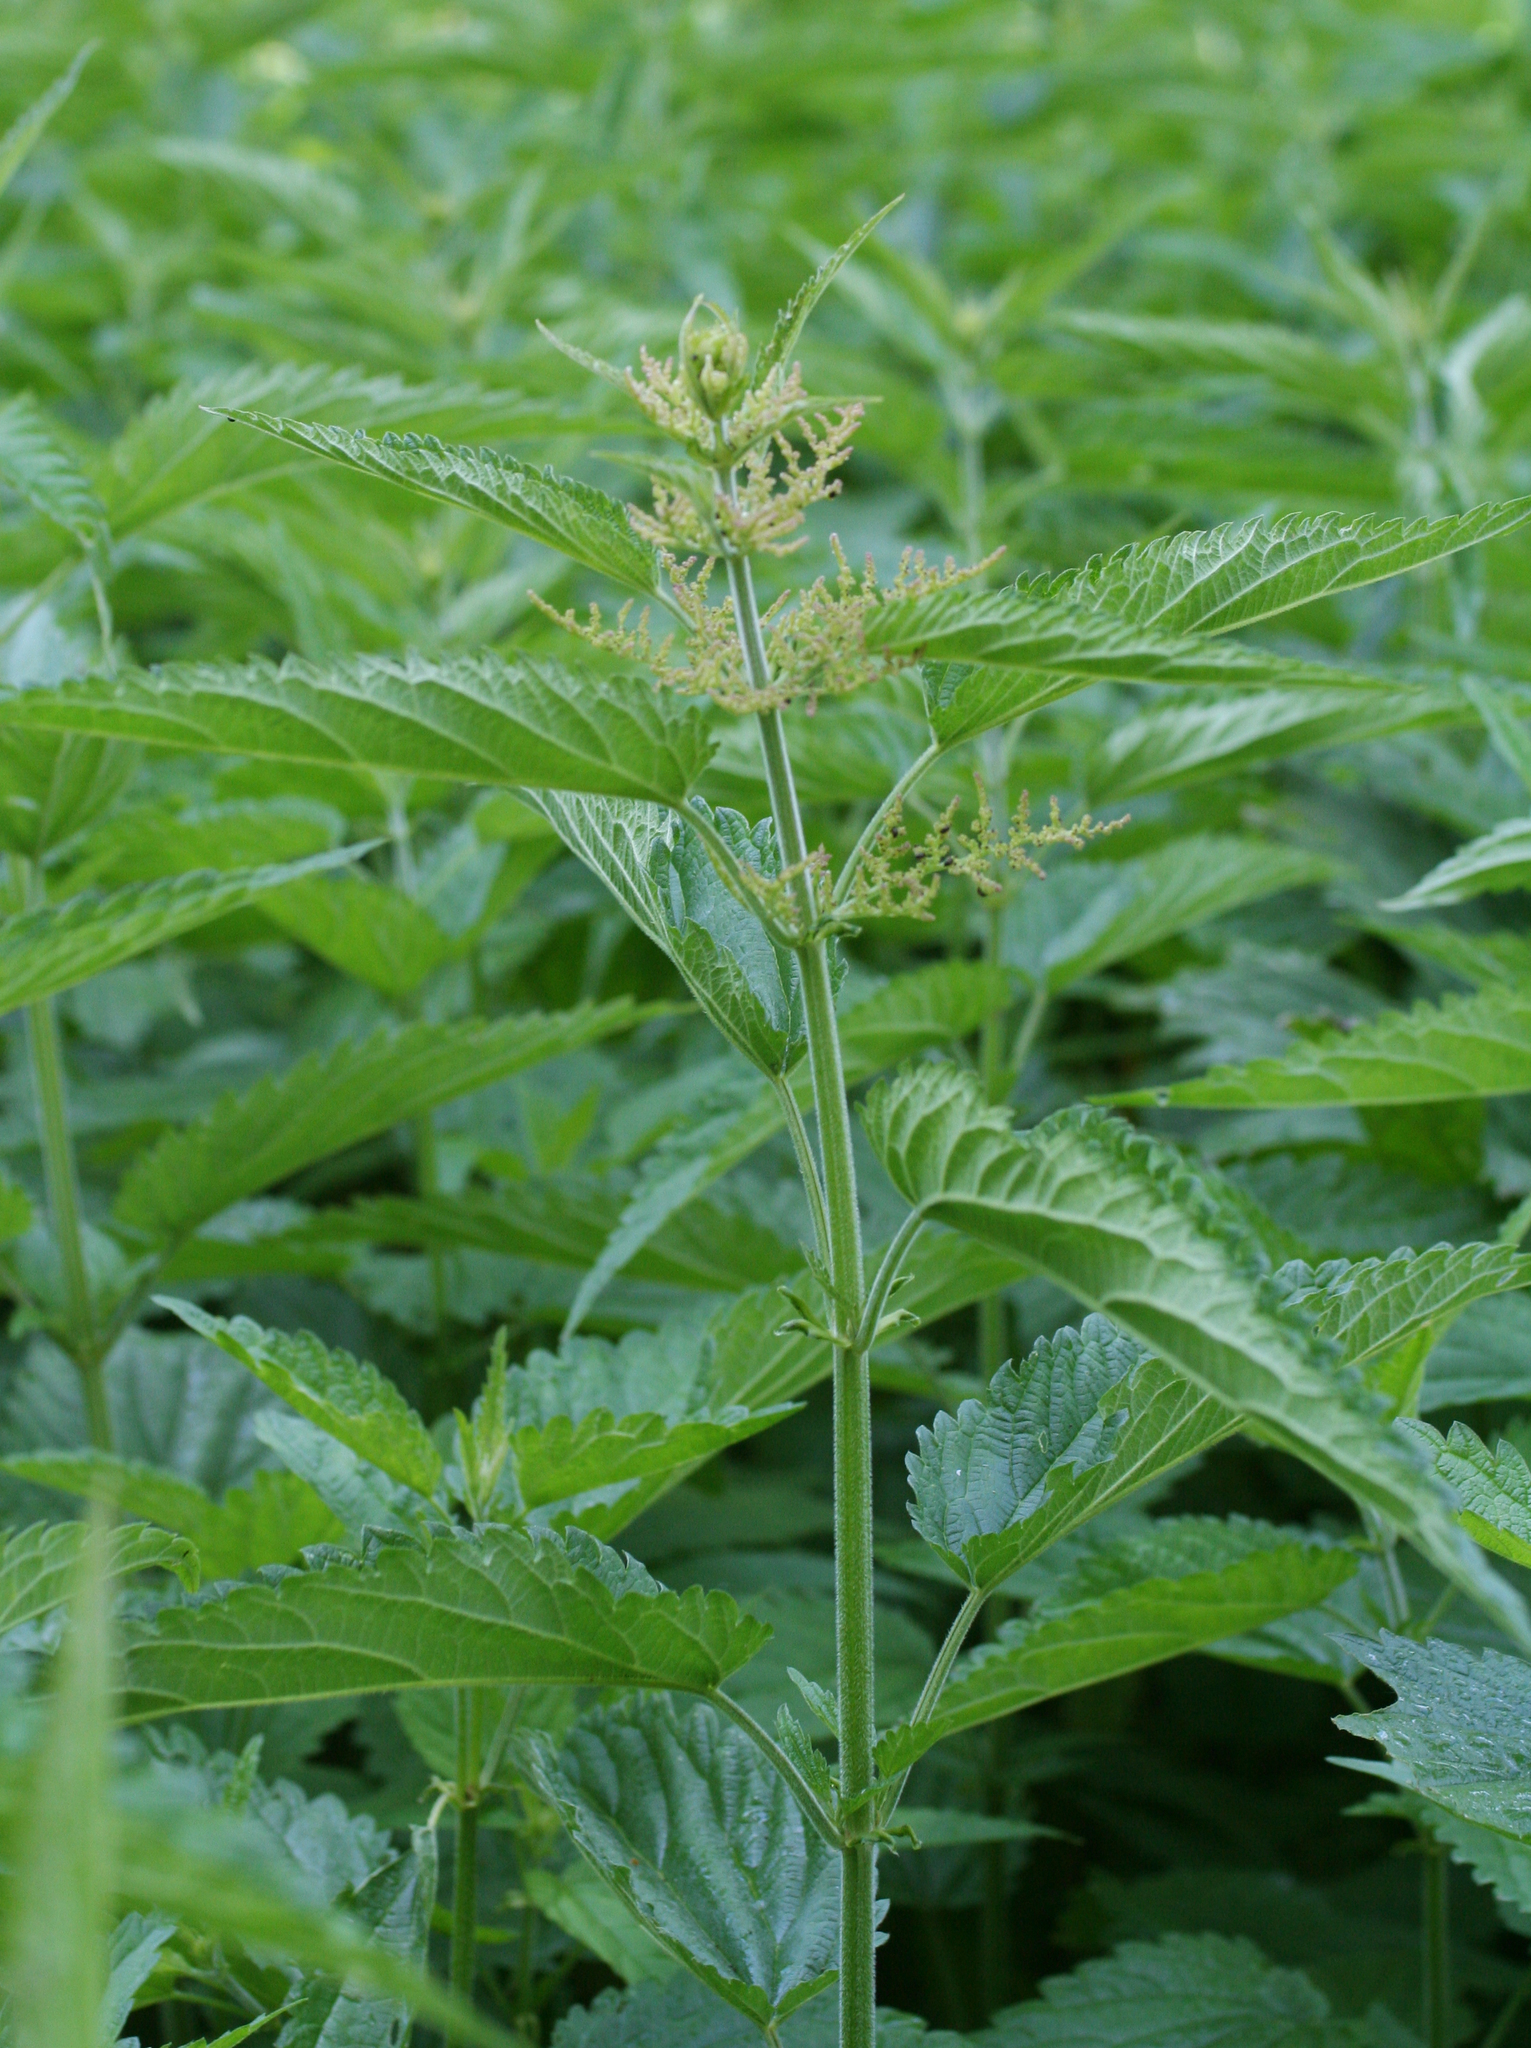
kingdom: Plantae
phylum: Tracheophyta
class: Magnoliopsida
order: Rosales
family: Urticaceae
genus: Urtica
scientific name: Urtica galeopsifolia
